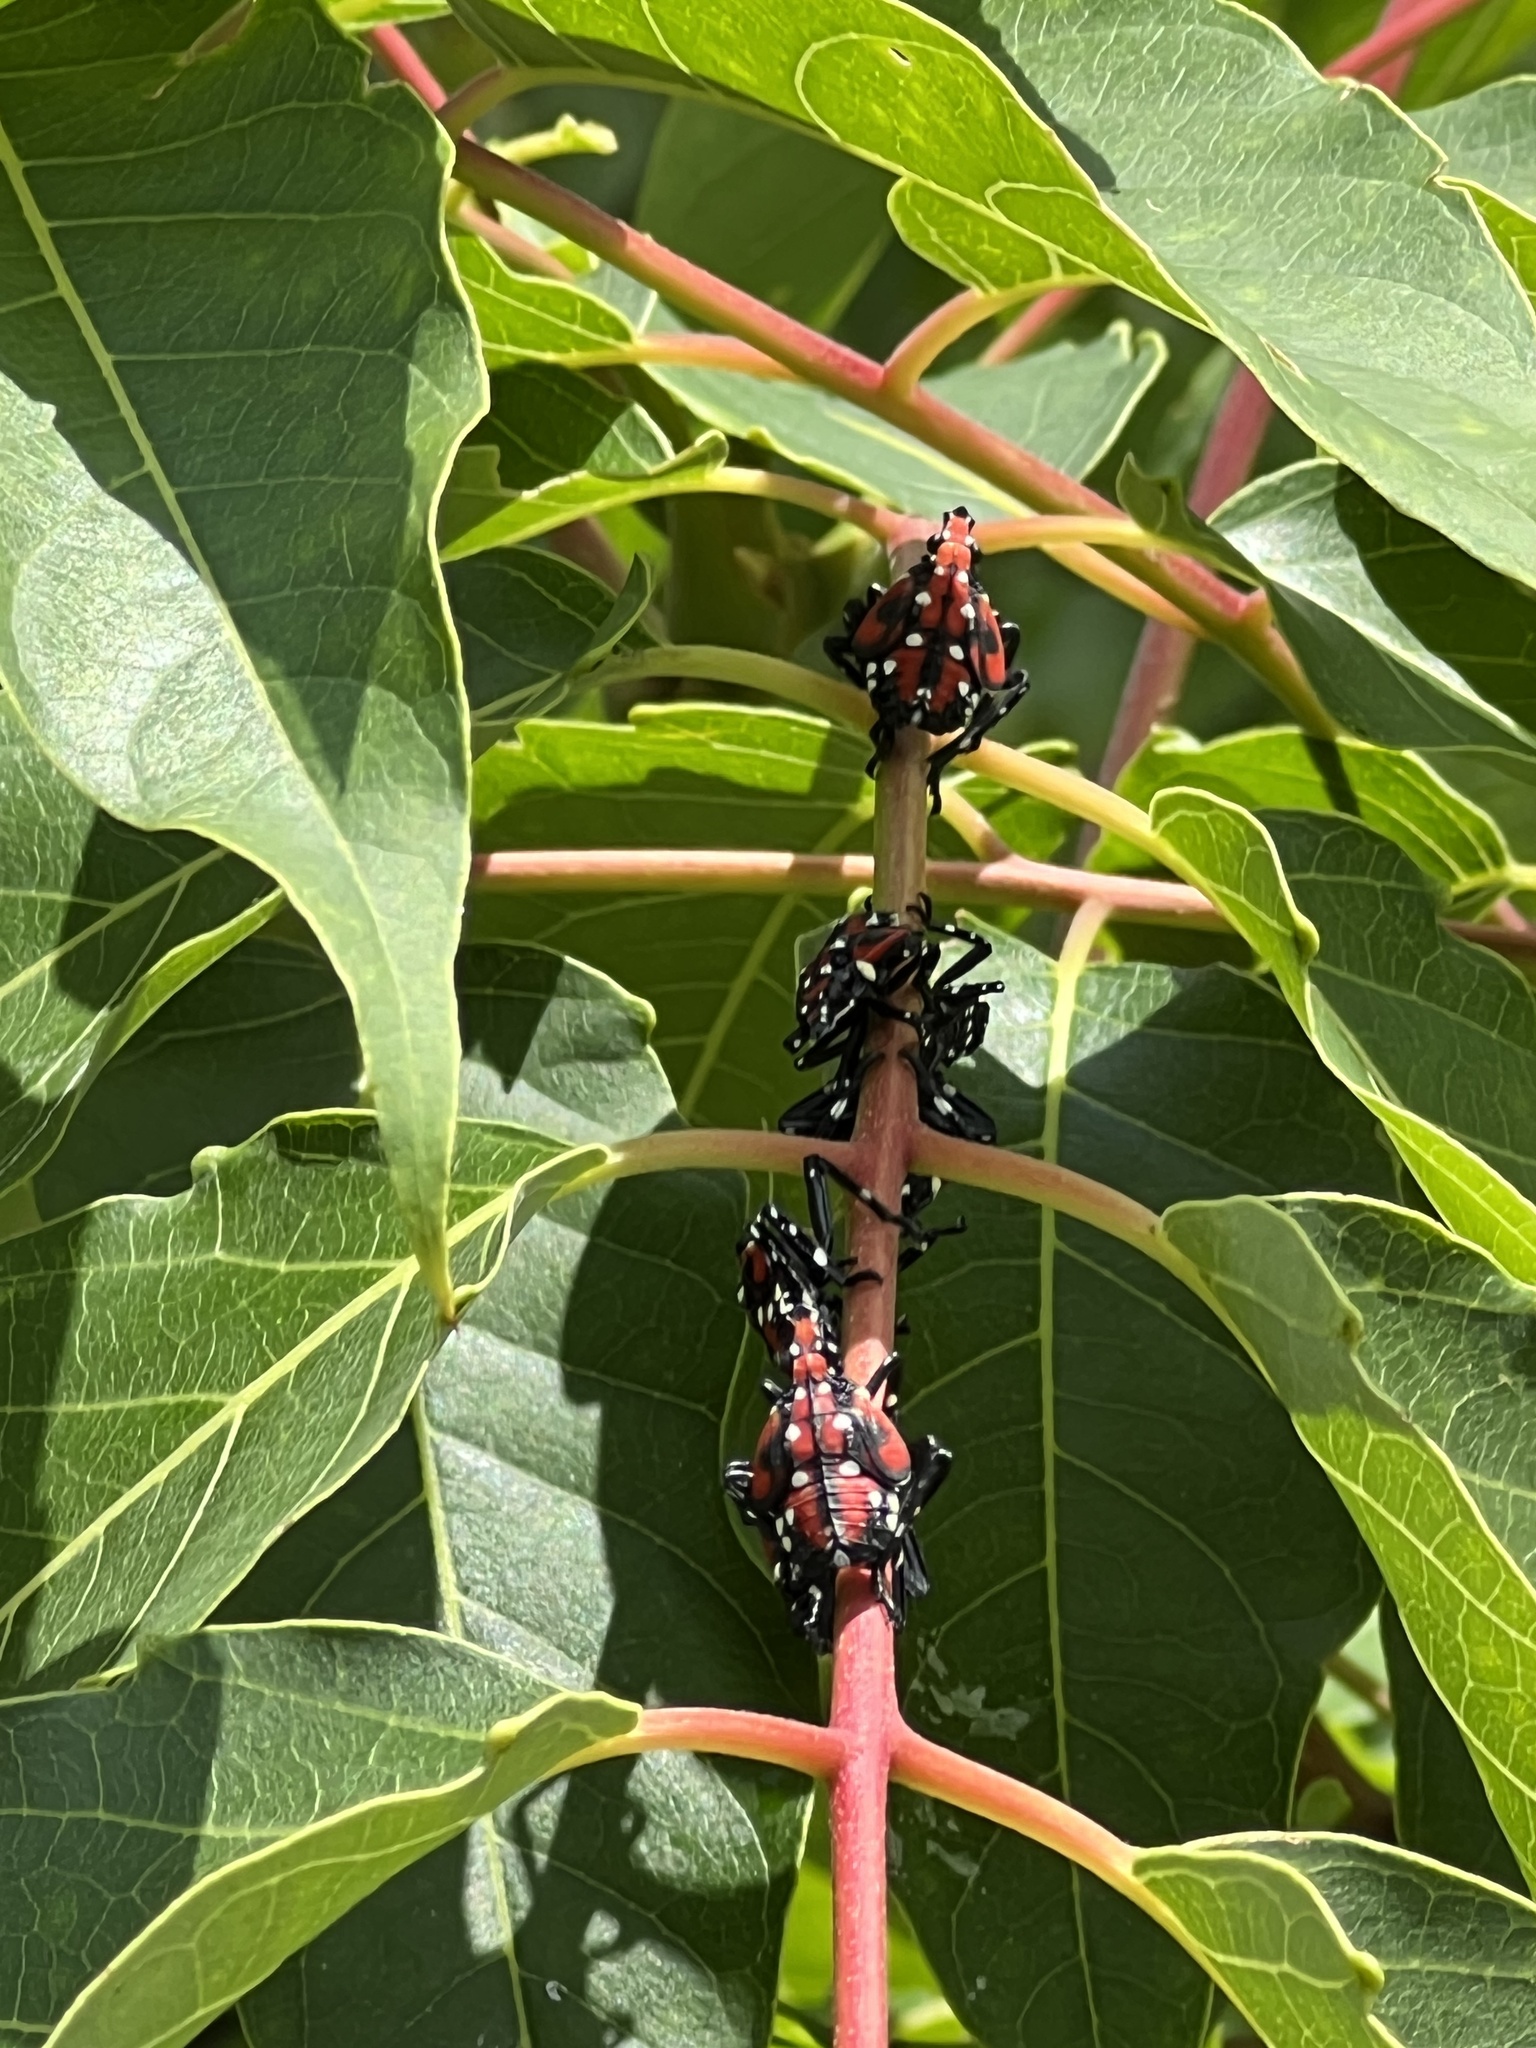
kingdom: Animalia
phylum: Arthropoda
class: Insecta
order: Hemiptera
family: Fulgoridae
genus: Lycorma
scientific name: Lycorma delicatula
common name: Spotted lanternfly
